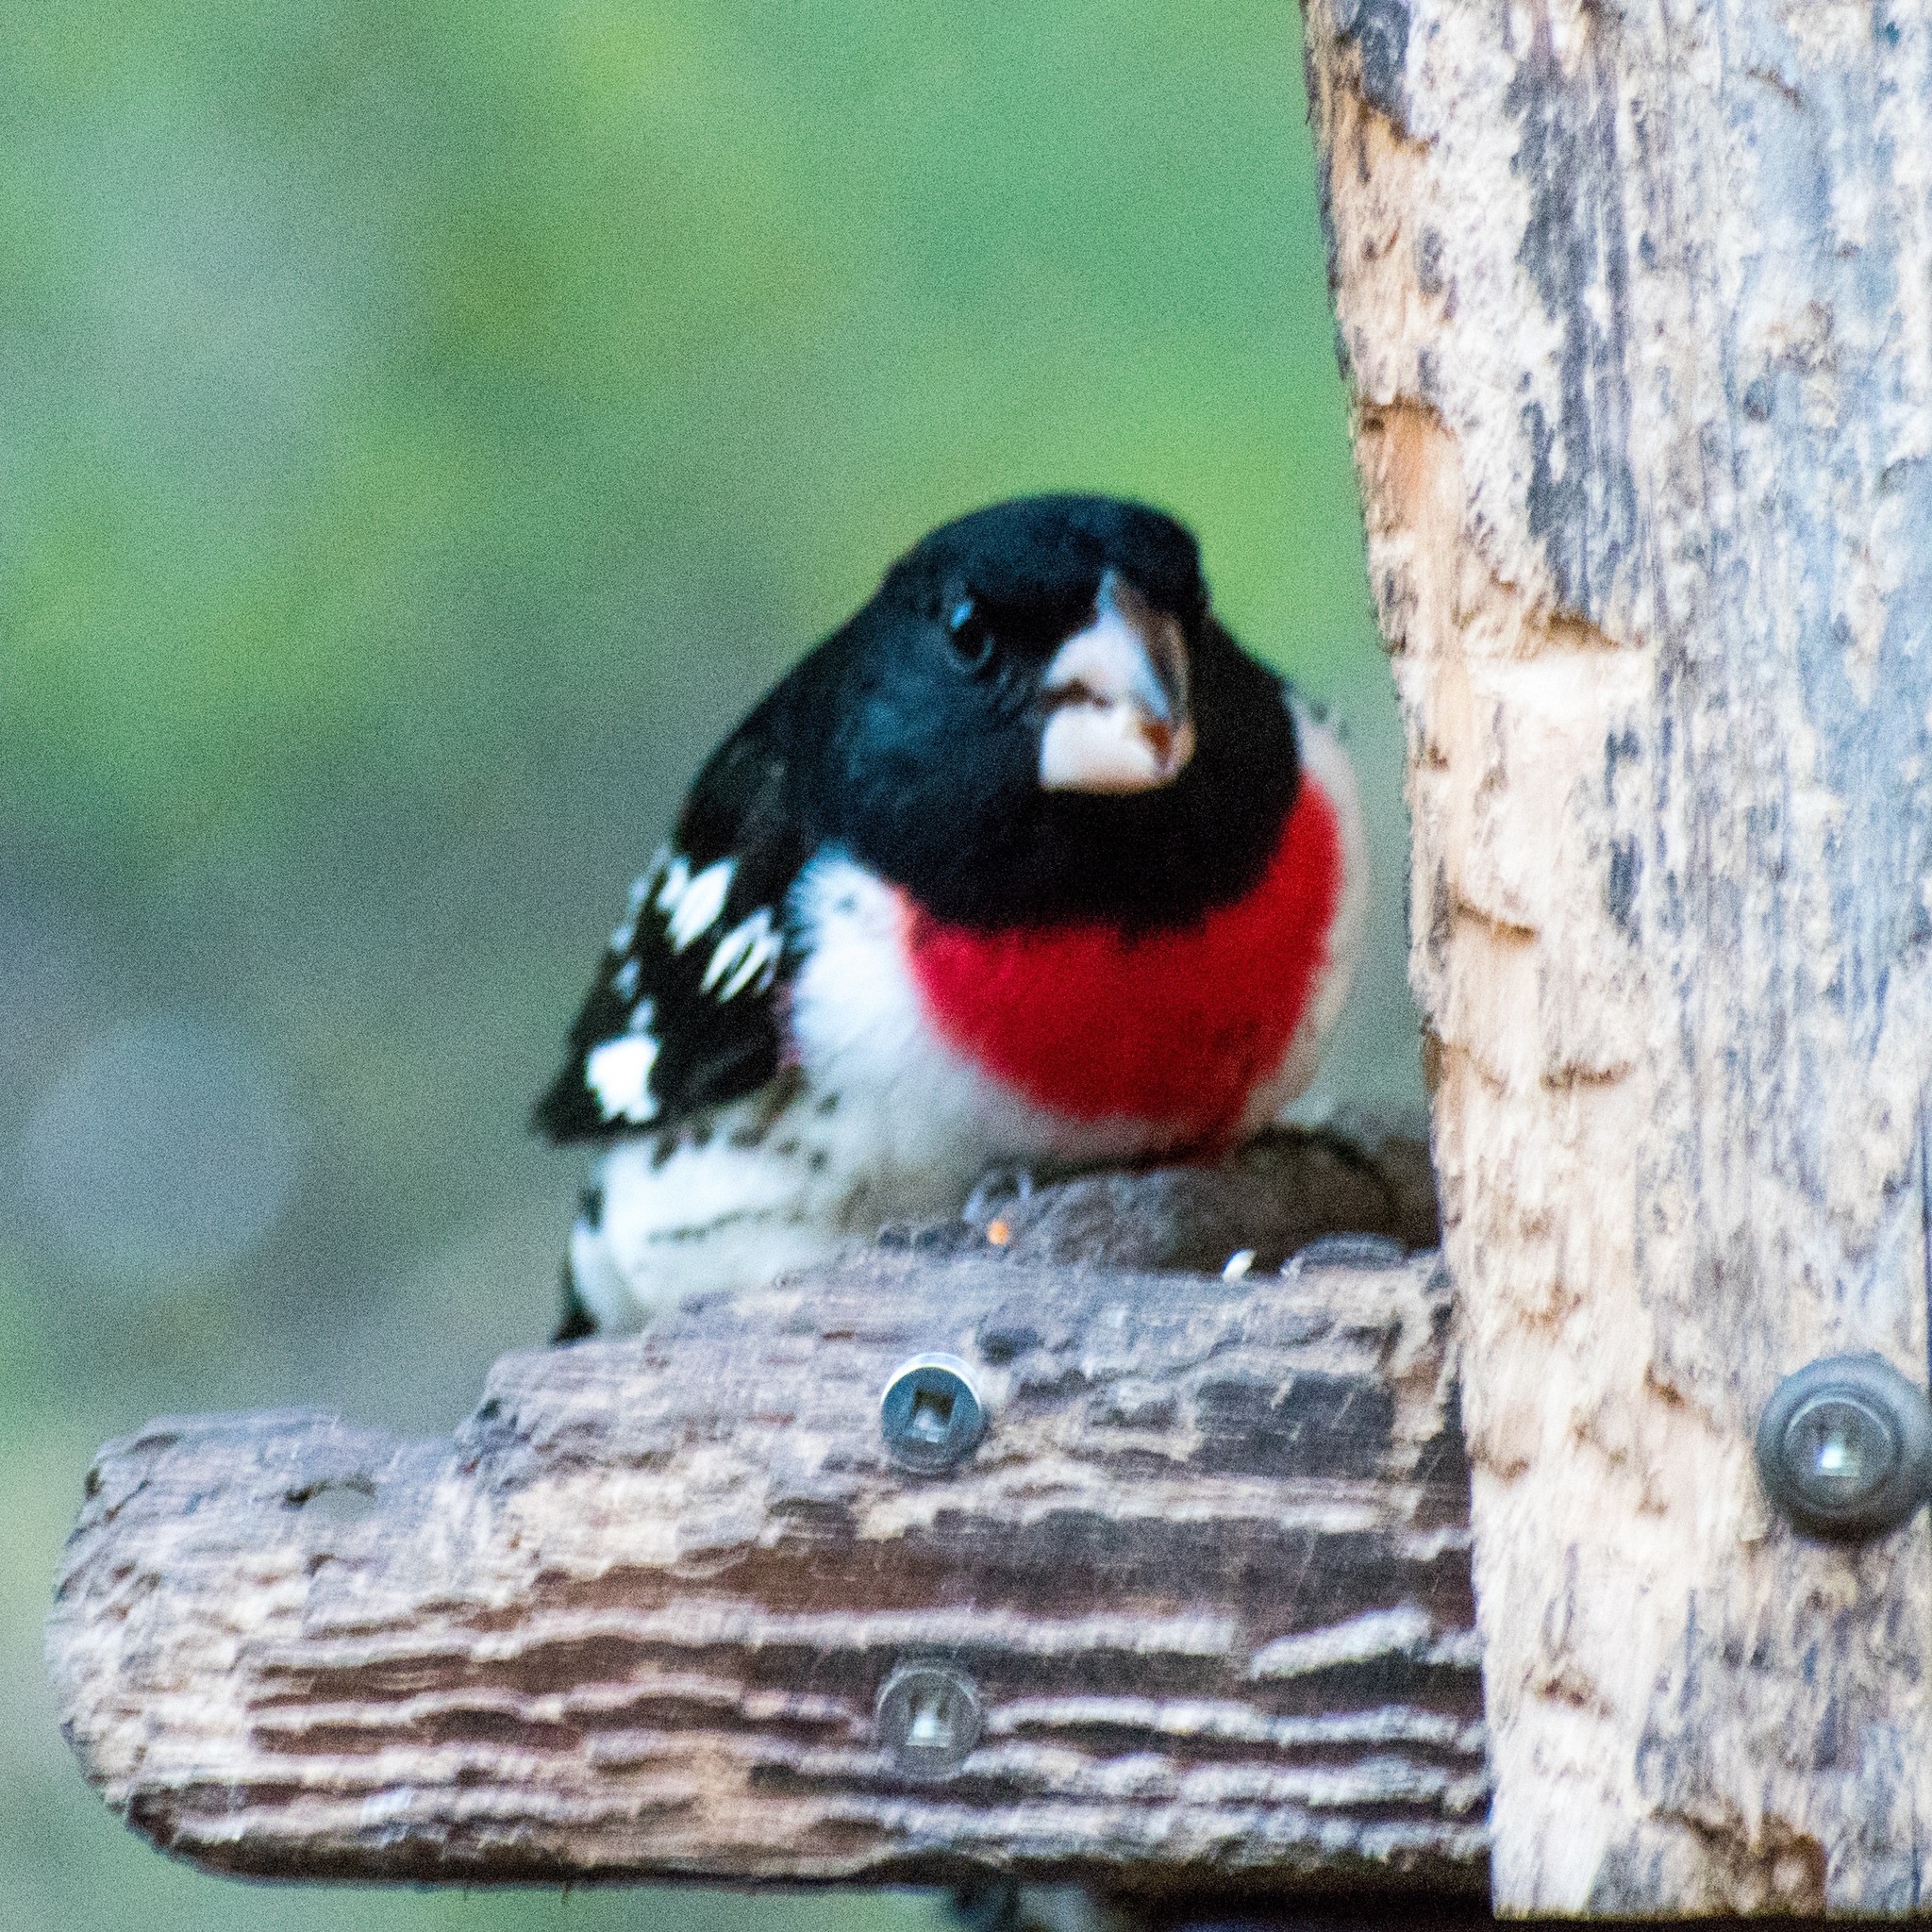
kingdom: Animalia
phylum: Chordata
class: Aves
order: Passeriformes
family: Cardinalidae
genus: Pheucticus
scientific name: Pheucticus ludovicianus
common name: Rose-breasted grosbeak
